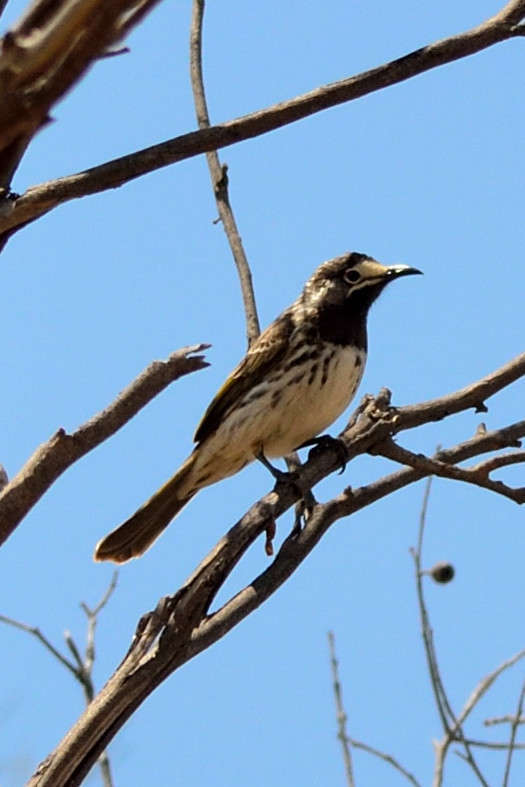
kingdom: Animalia
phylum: Chordata
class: Aves
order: Passeriformes
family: Meliphagidae
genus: Purnella
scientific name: Purnella albifrons
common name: White-fronted honeyeater
